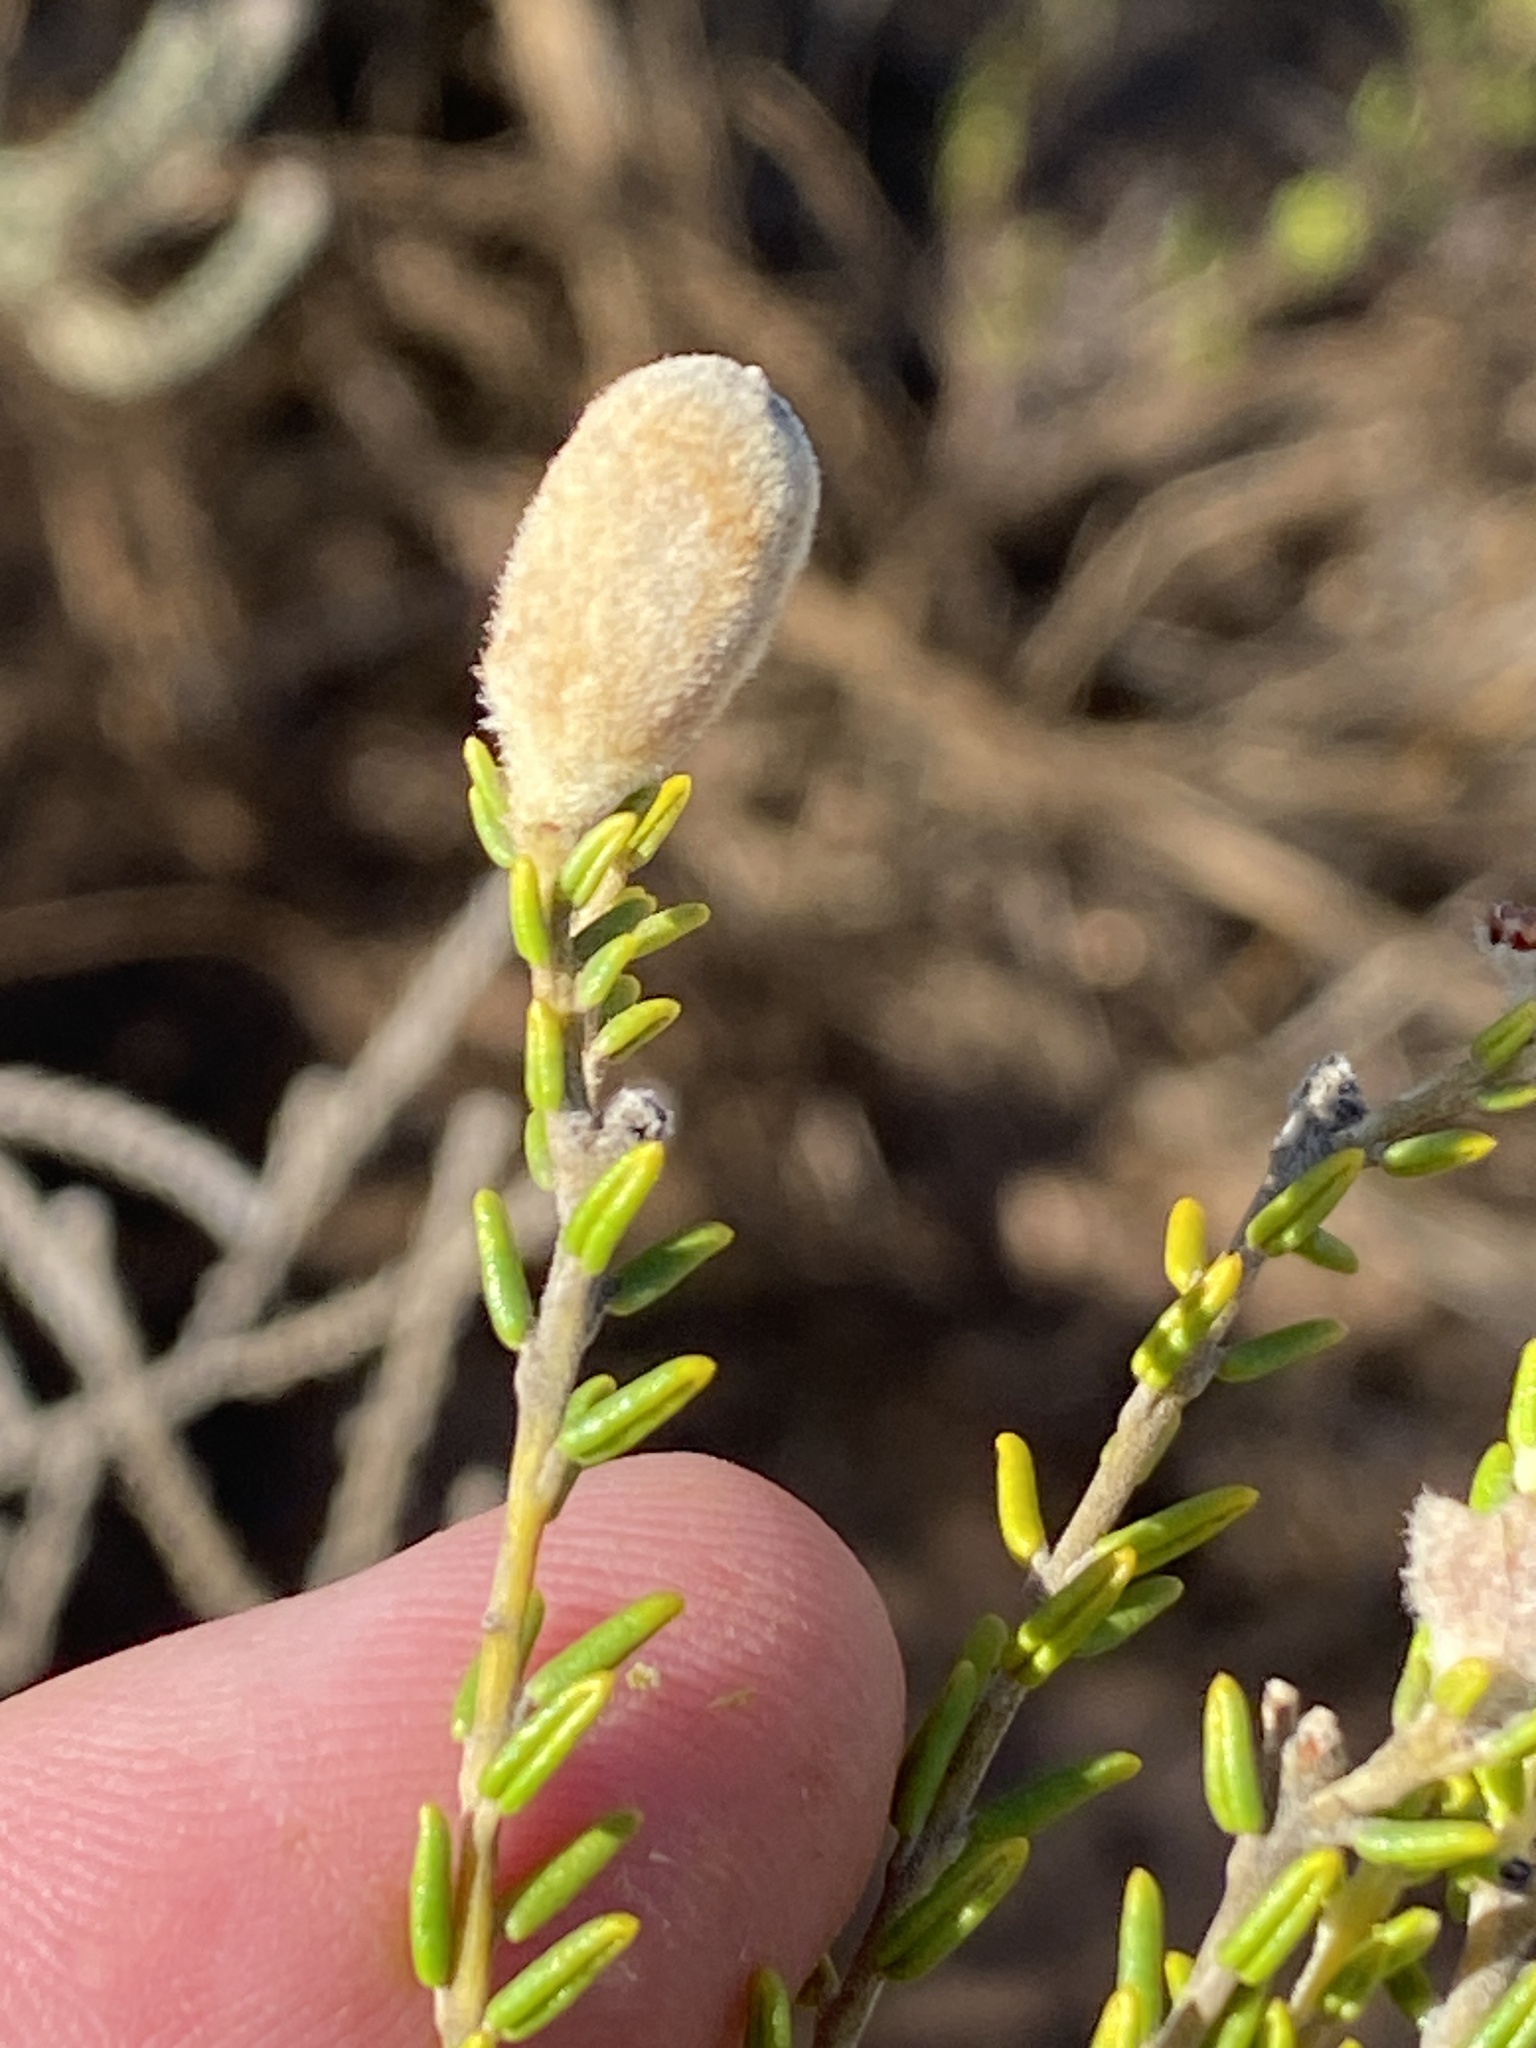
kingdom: Plantae
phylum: Tracheophyta
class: Magnoliopsida
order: Rosales
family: Rhamnaceae
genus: Phylica
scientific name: Phylica cephalantha
